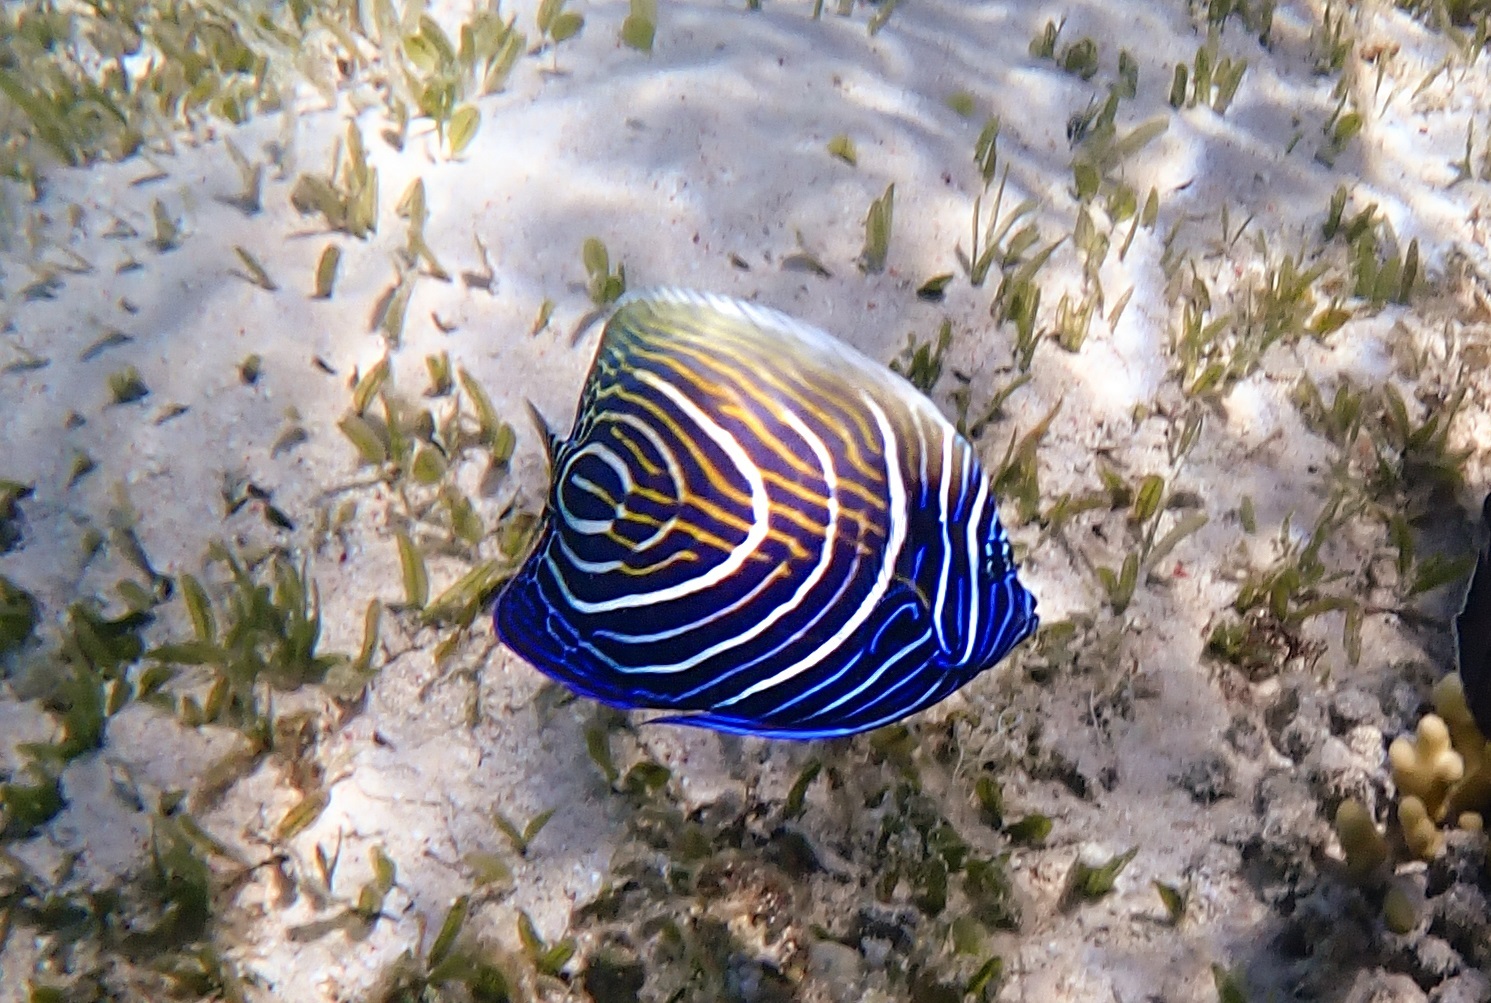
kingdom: Animalia
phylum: Chordata
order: Perciformes
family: Pomacanthidae
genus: Pomacanthus
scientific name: Pomacanthus imperator
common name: Emperor angelfish
